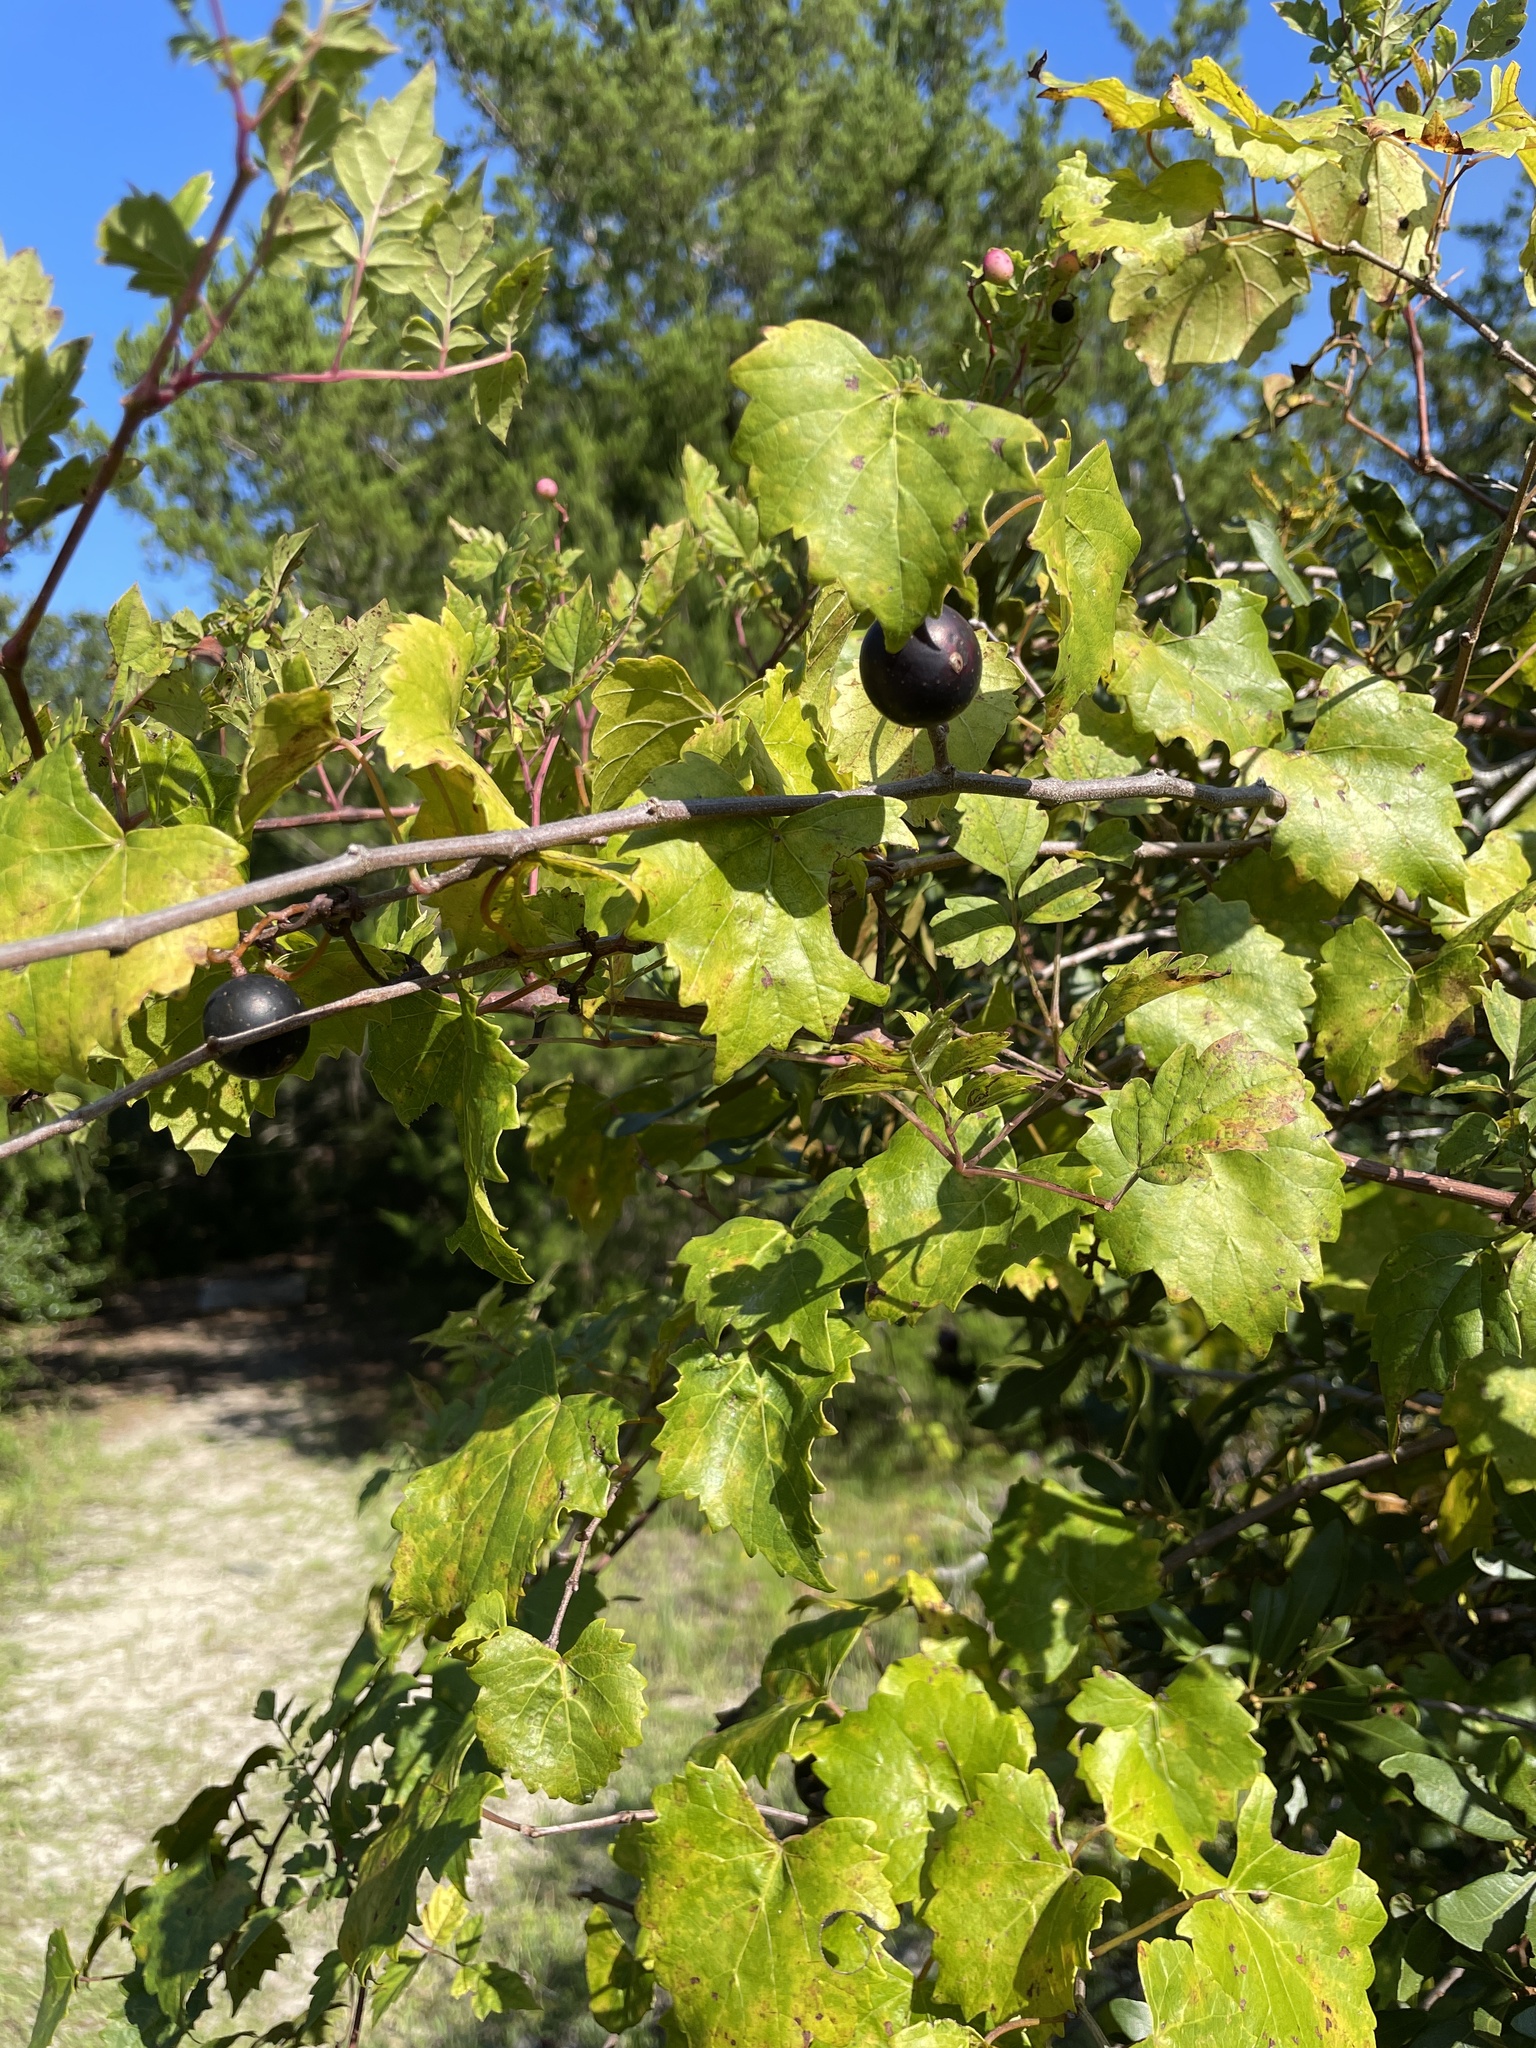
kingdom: Plantae
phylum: Tracheophyta
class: Magnoliopsida
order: Vitales
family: Vitaceae
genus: Vitis
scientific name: Vitis rotundifolia
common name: Muscadine grape
